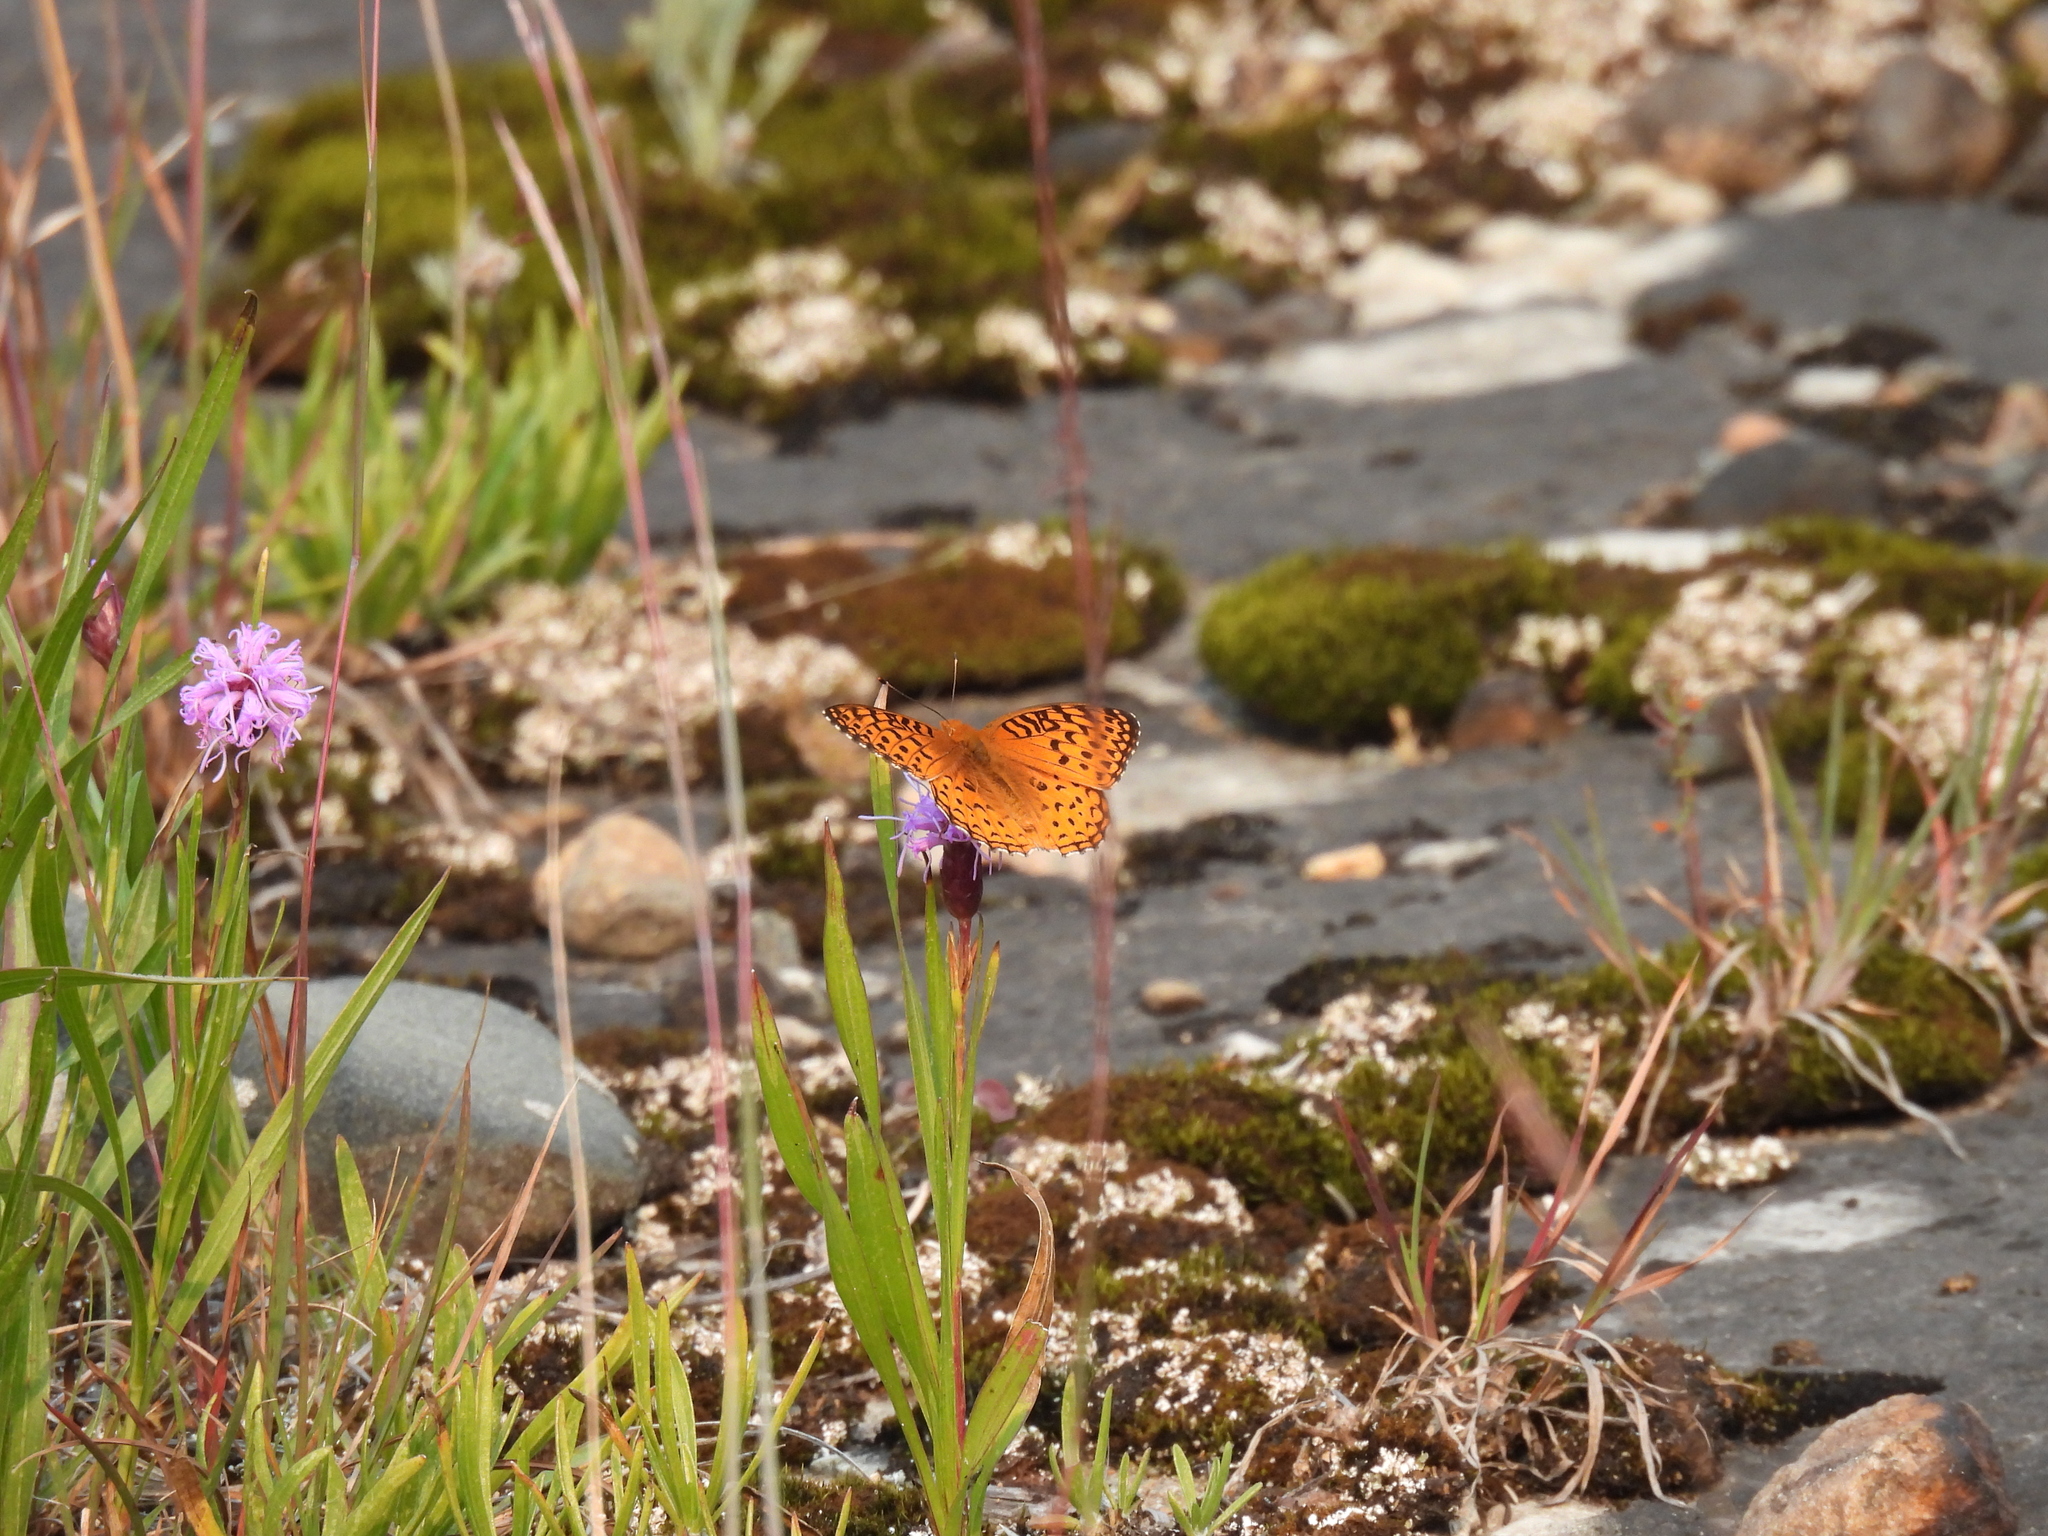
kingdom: Animalia
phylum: Arthropoda
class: Insecta
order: Lepidoptera
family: Nymphalidae
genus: Speyeria
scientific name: Speyeria aphrodite
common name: Aphrodite friitllary
